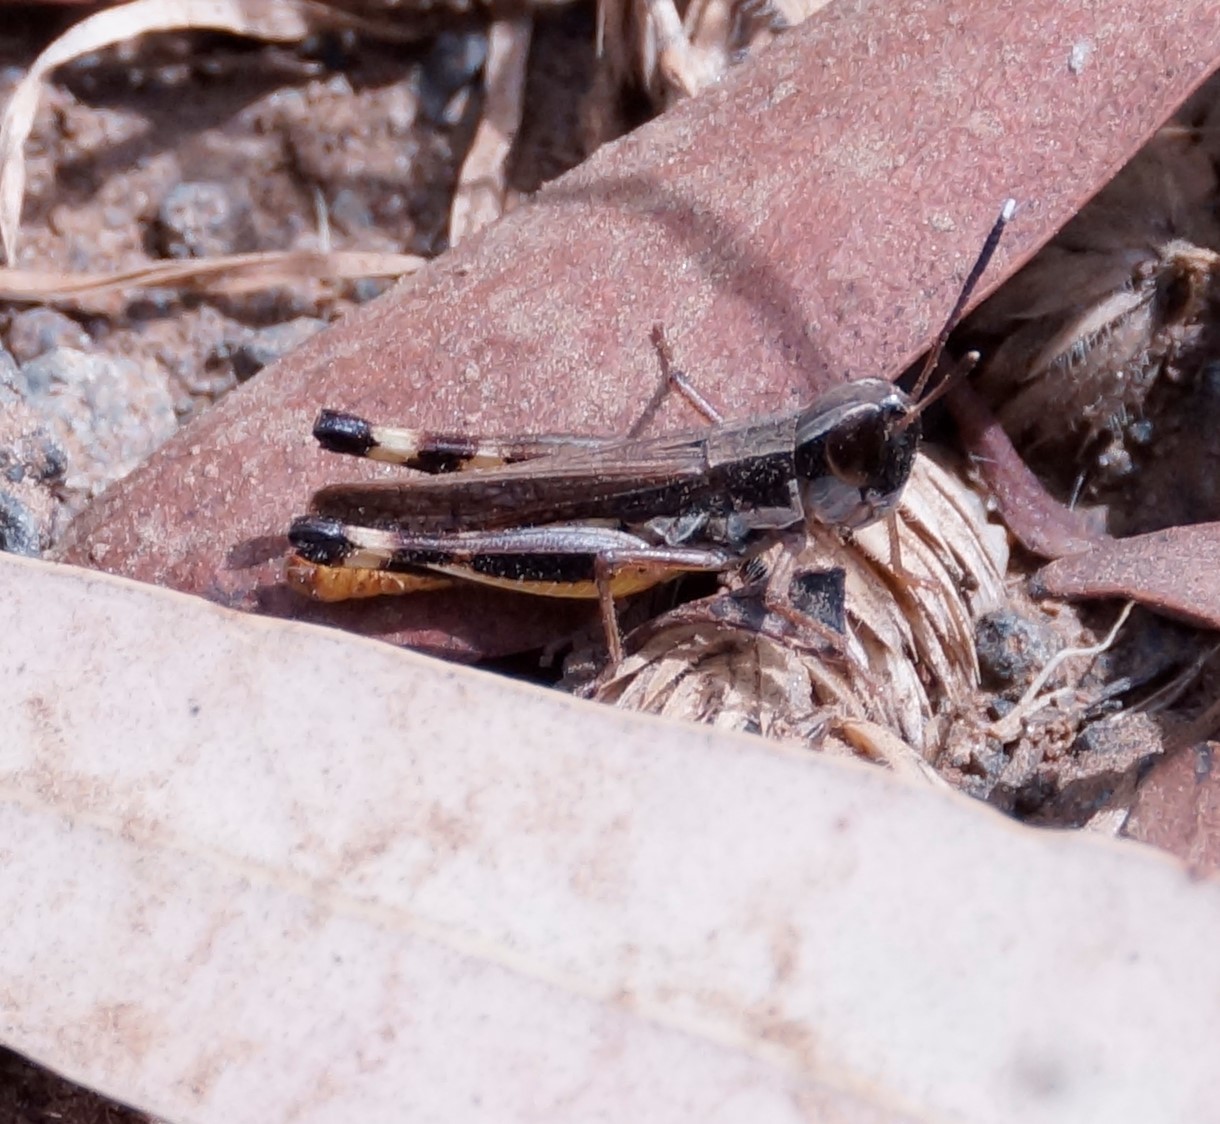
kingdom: Animalia
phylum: Arthropoda
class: Insecta
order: Orthoptera
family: Acrididae
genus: Macrotona
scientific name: Macrotona australis
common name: Common macrotona
